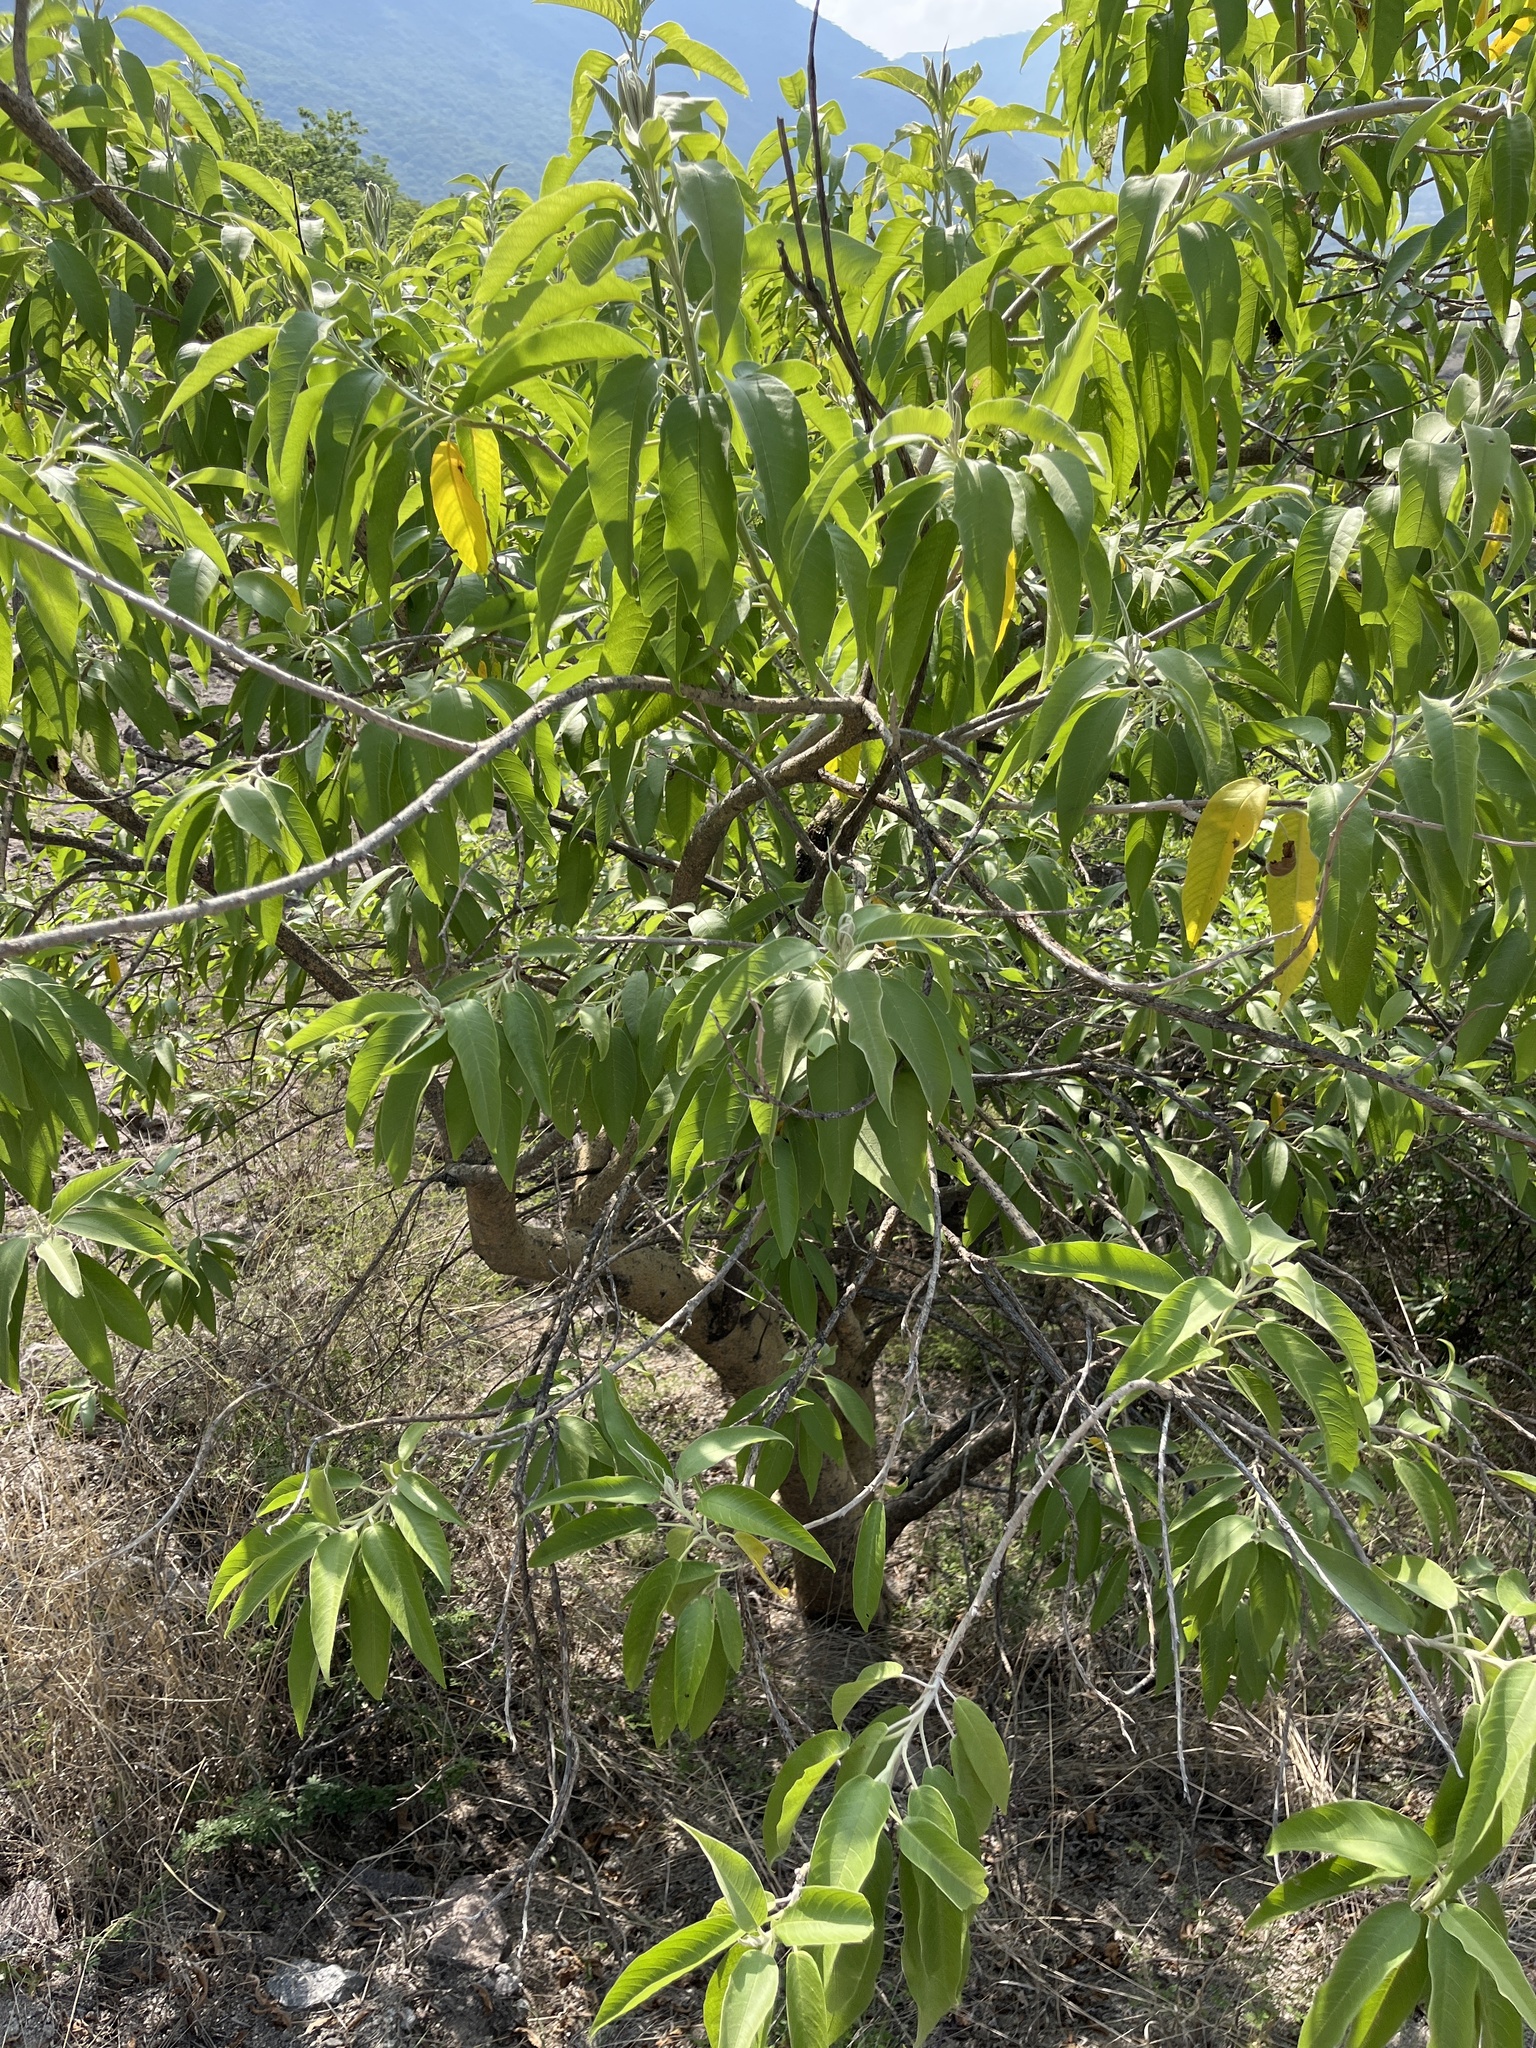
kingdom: Plantae
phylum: Tracheophyta
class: Magnoliopsida
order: Solanales
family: Convolvulaceae
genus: Ipomoea
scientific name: Ipomoea murucoides
